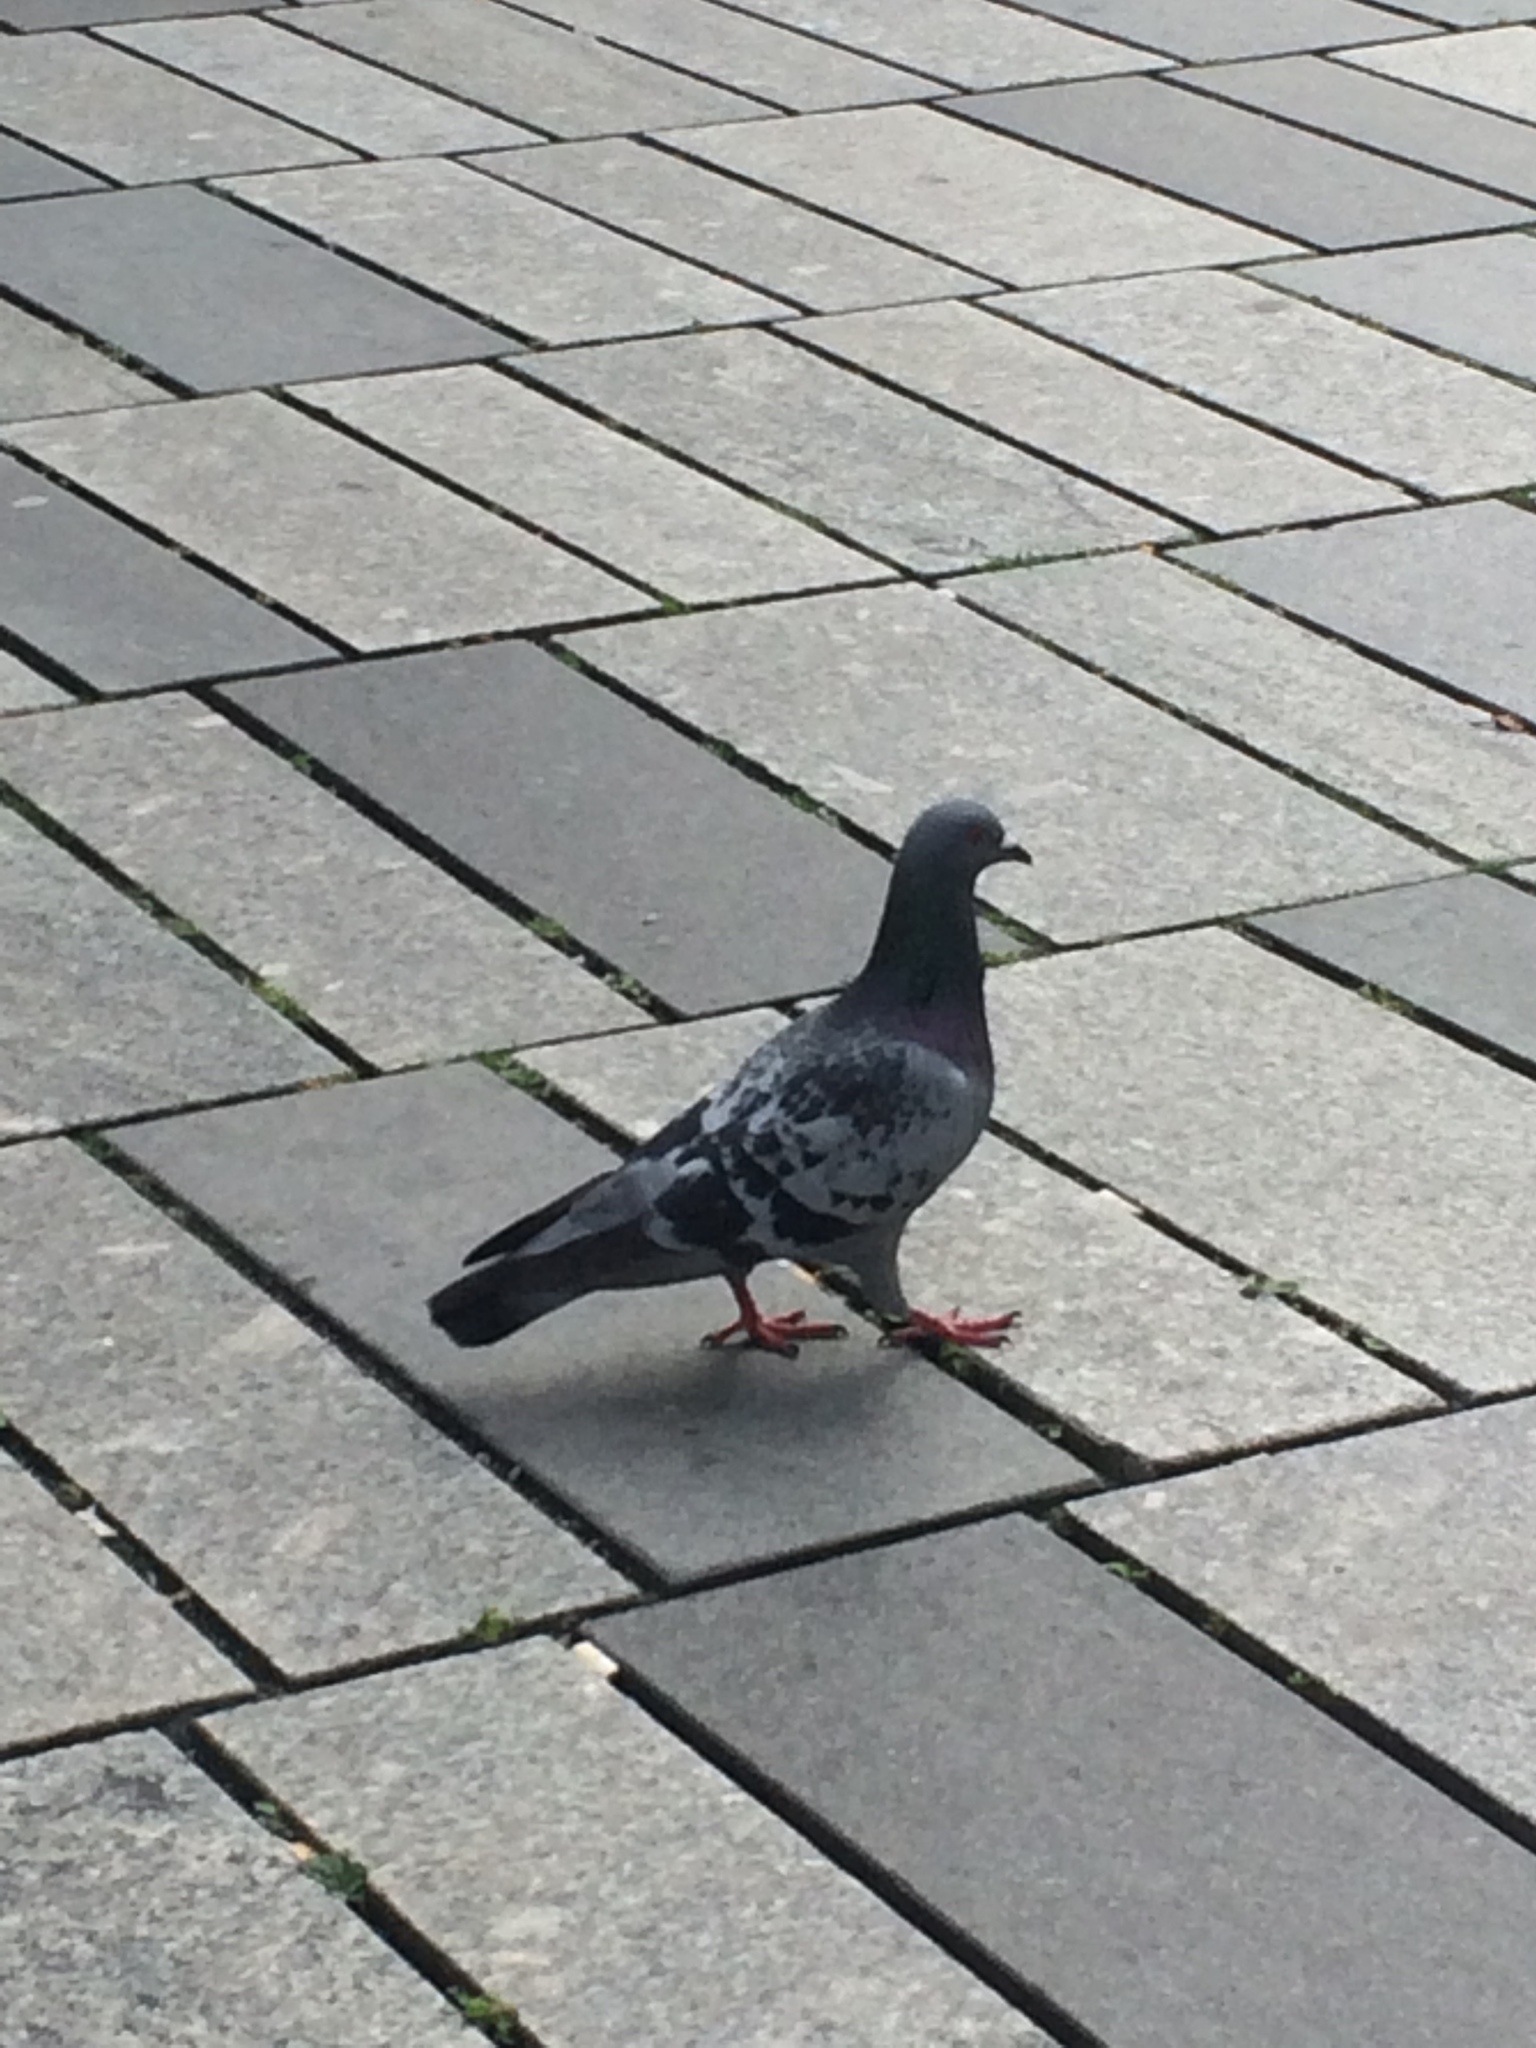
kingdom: Animalia
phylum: Chordata
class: Aves
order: Columbiformes
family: Columbidae
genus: Columba
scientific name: Columba livia
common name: Rock pigeon
